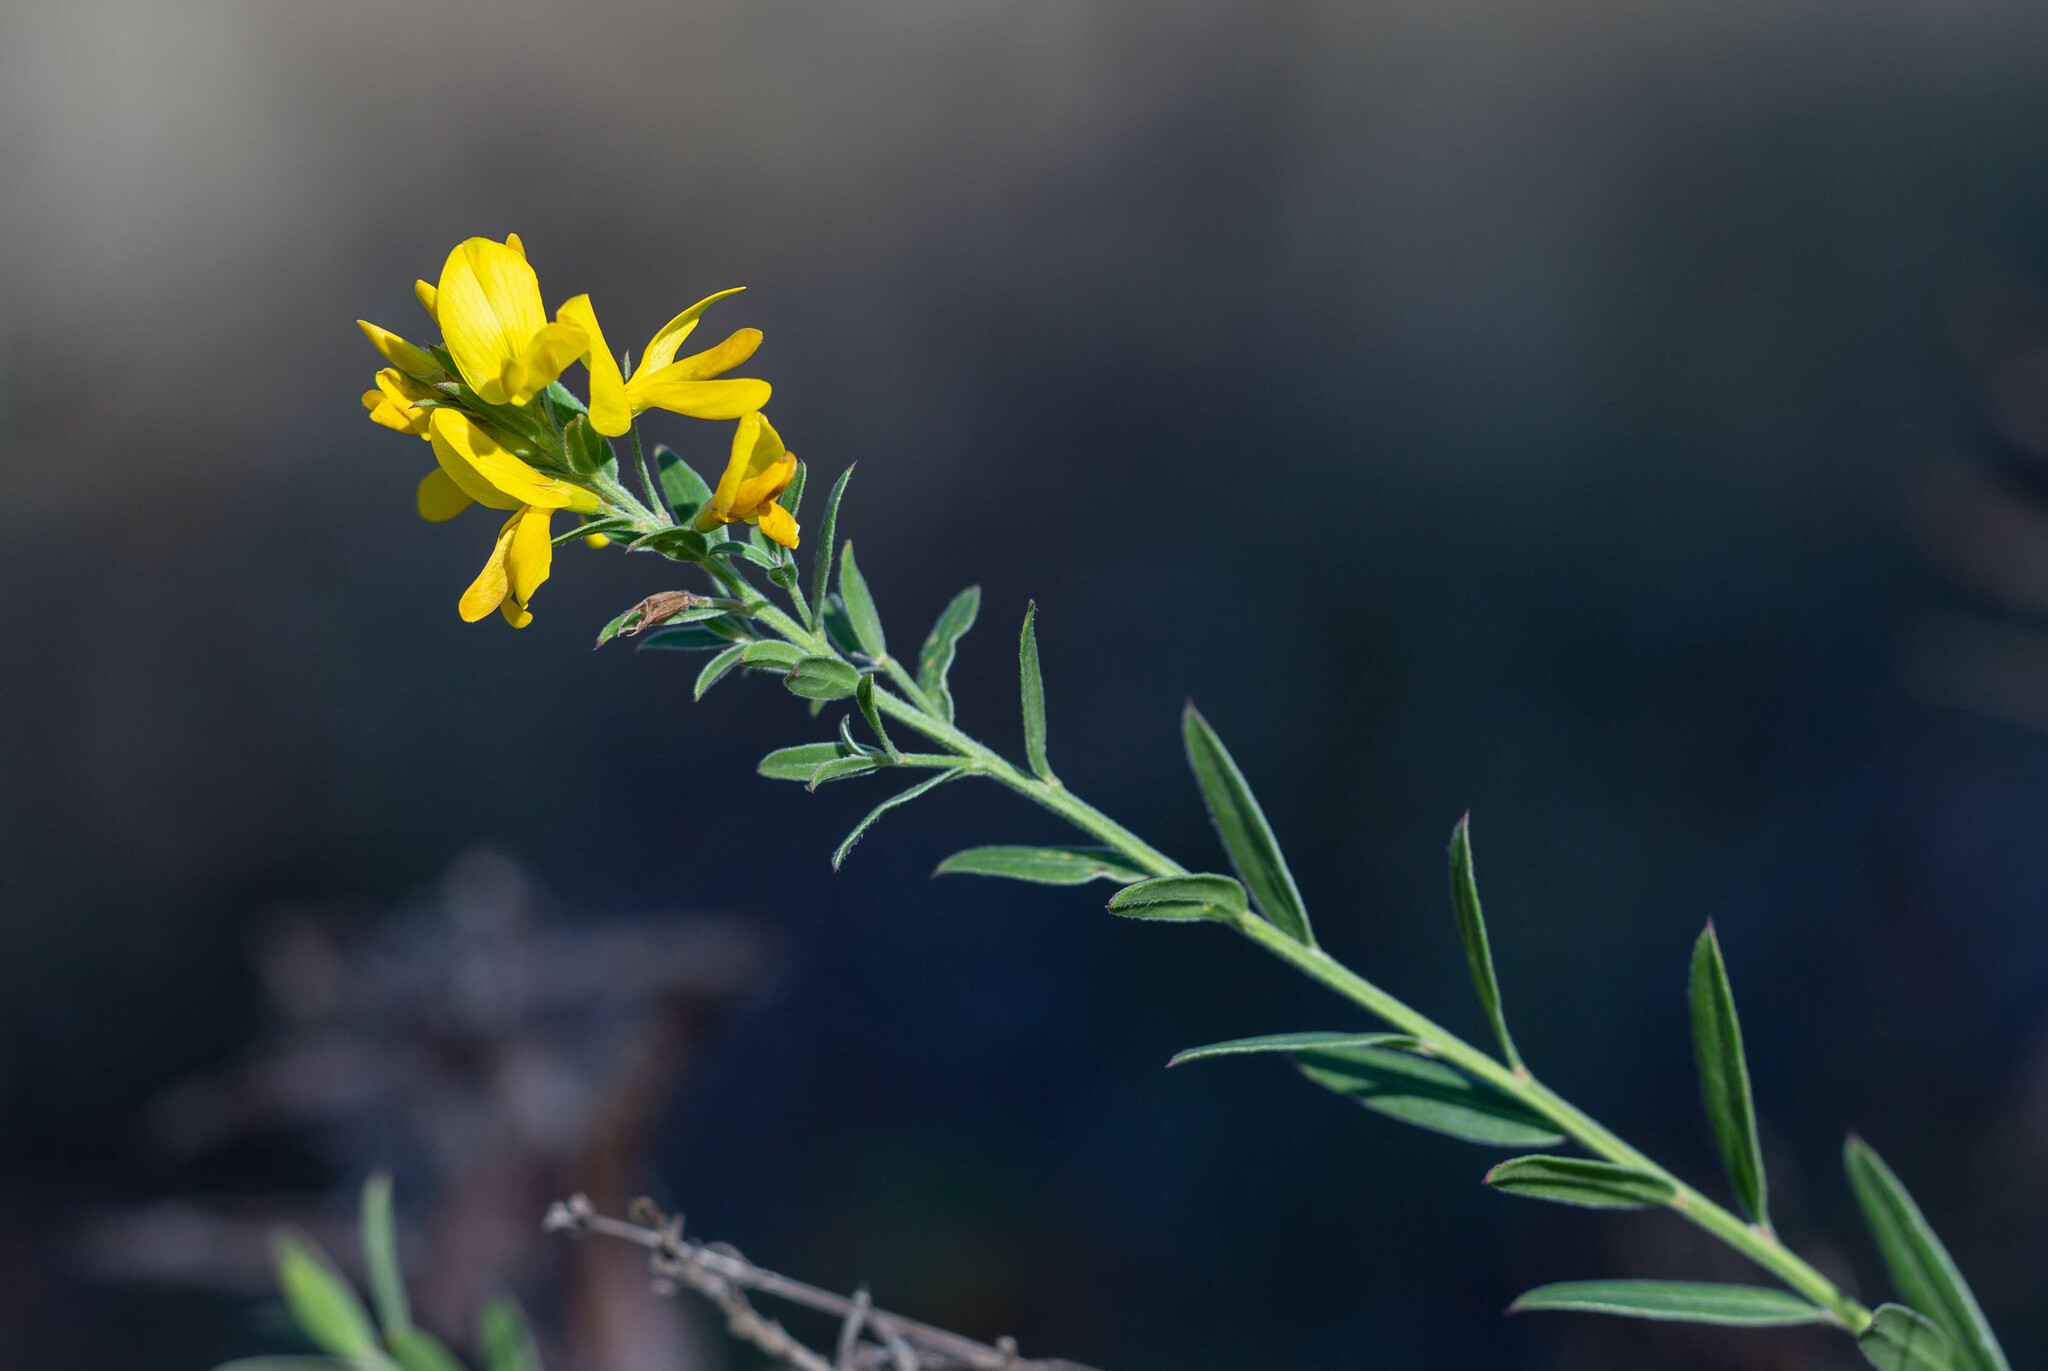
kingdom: Plantae
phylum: Tracheophyta
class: Magnoliopsida
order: Fabales
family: Fabaceae
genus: Genista
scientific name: Genista tinctoria
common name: Dyer's greenweed
